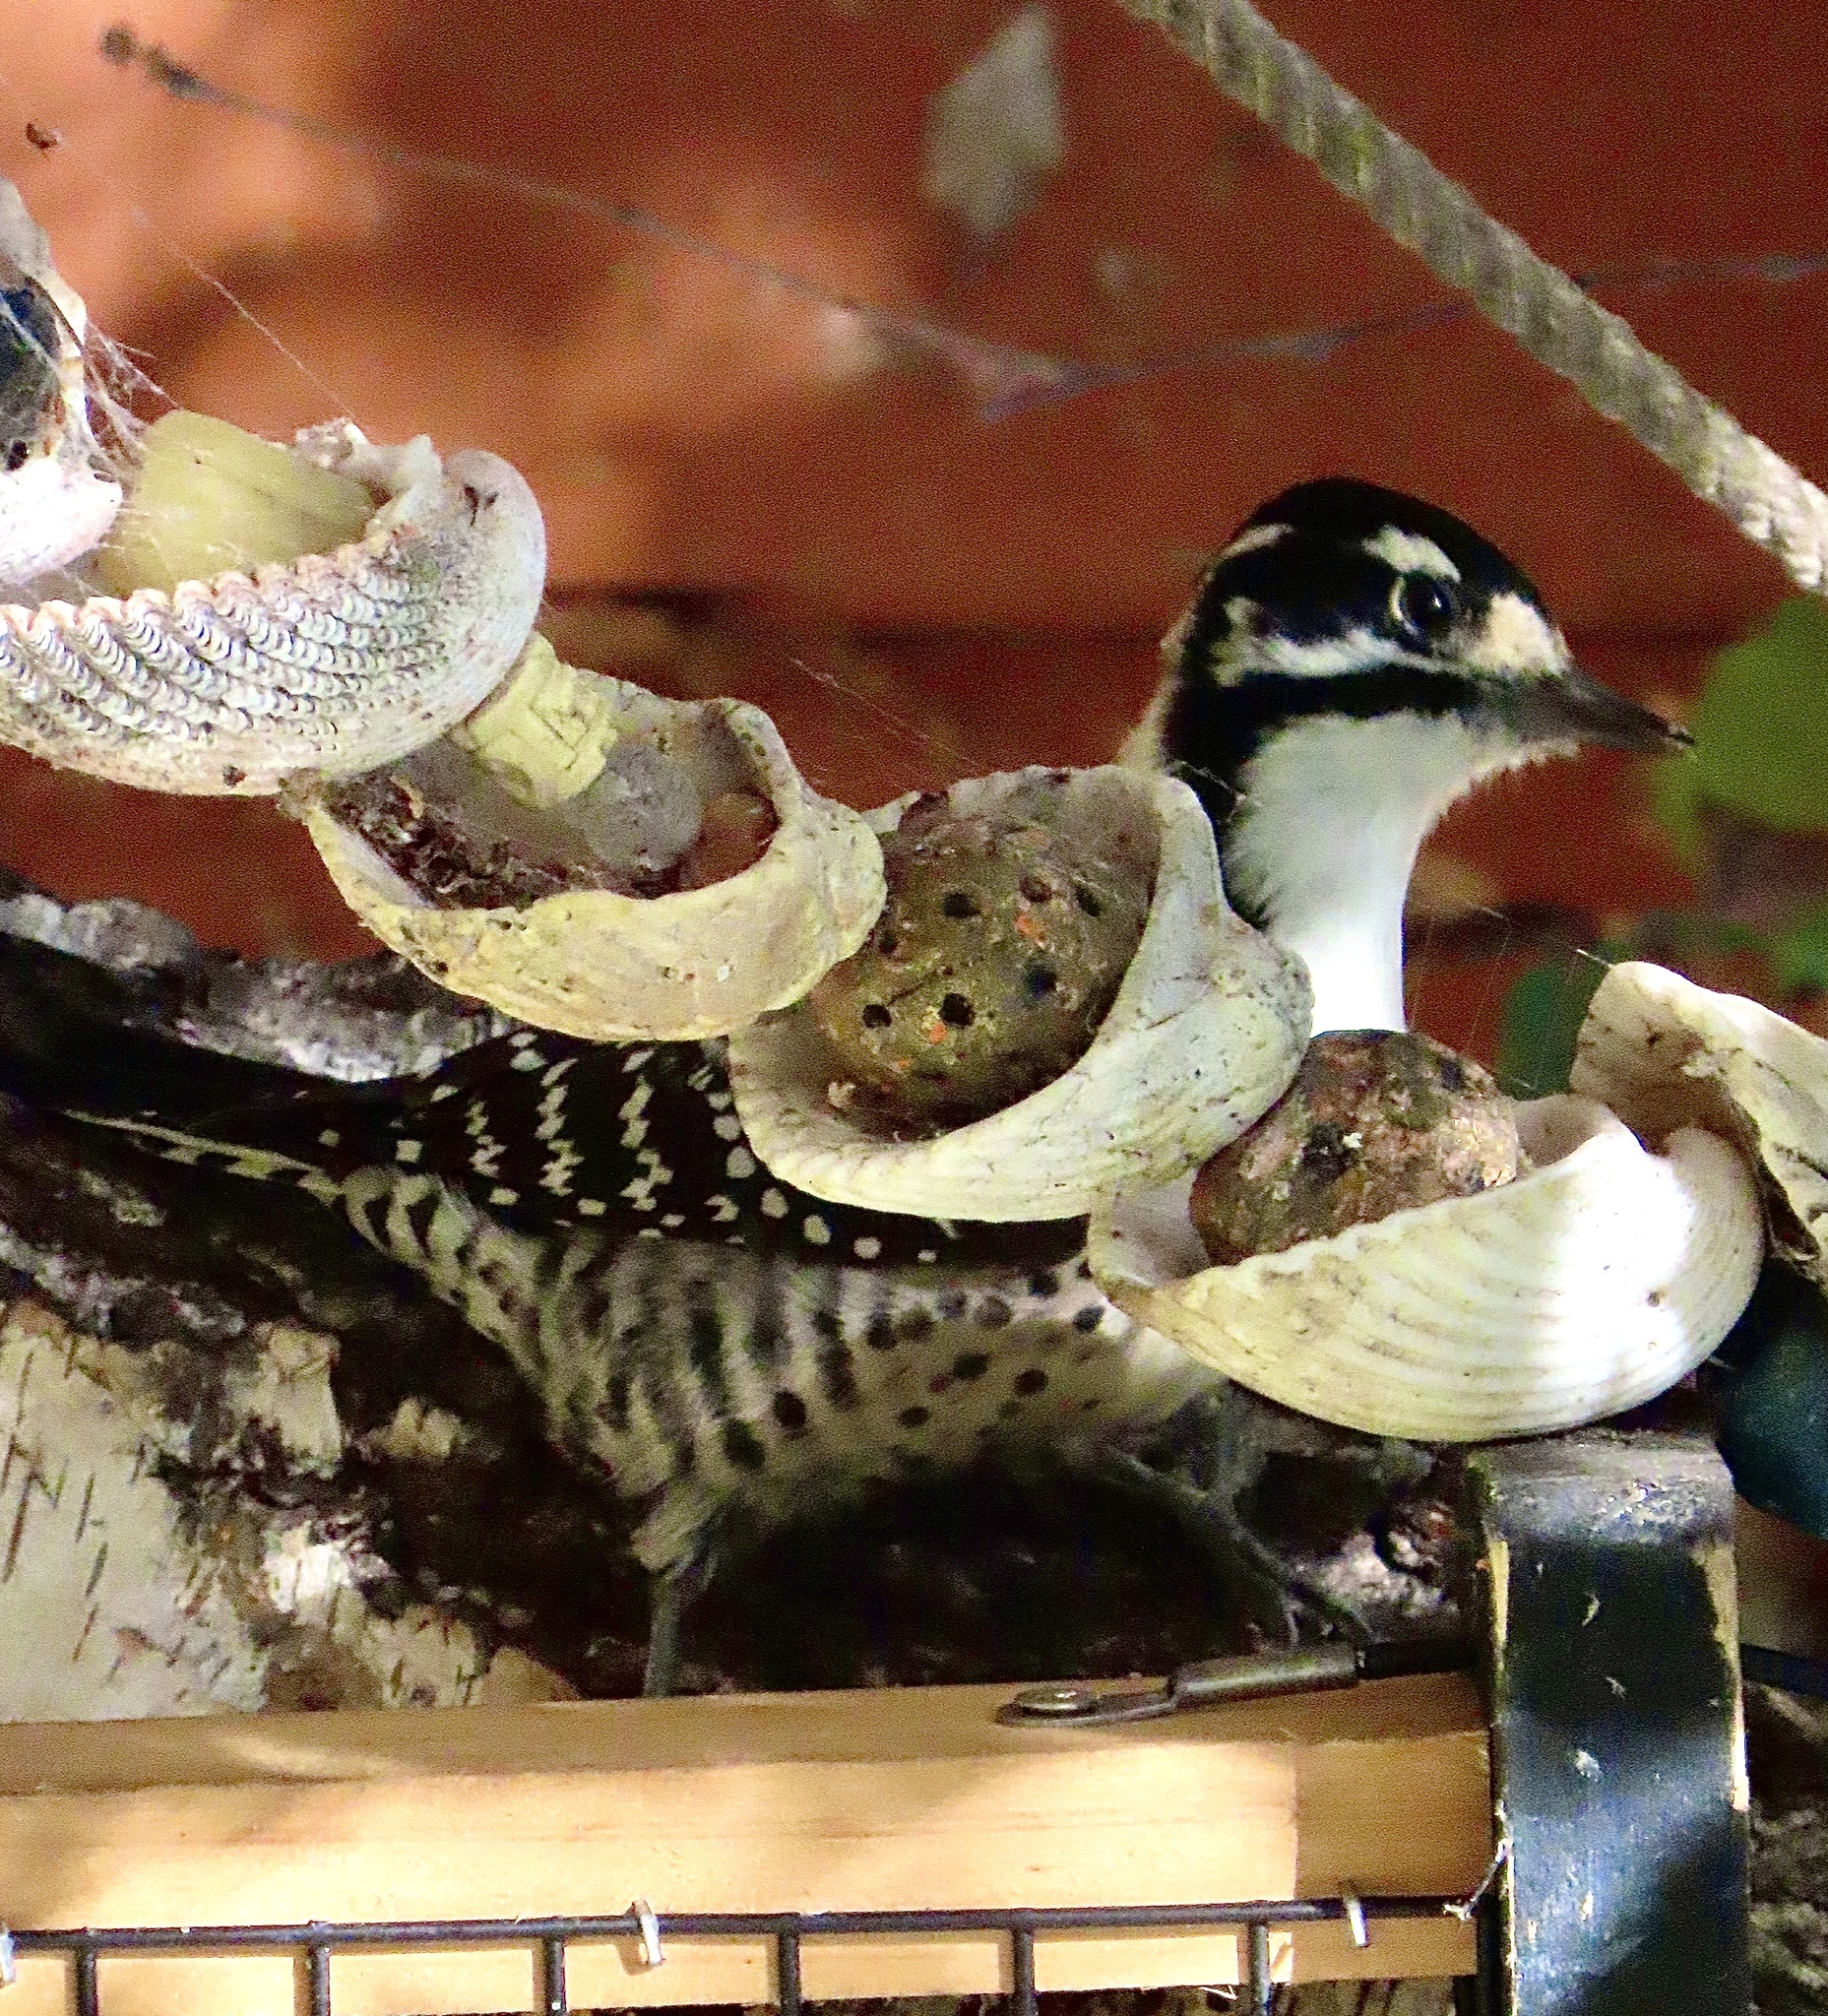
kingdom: Animalia
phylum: Chordata
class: Aves
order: Piciformes
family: Picidae
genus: Dryobates
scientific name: Dryobates nuttallii
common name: Nuttall's woodpecker
